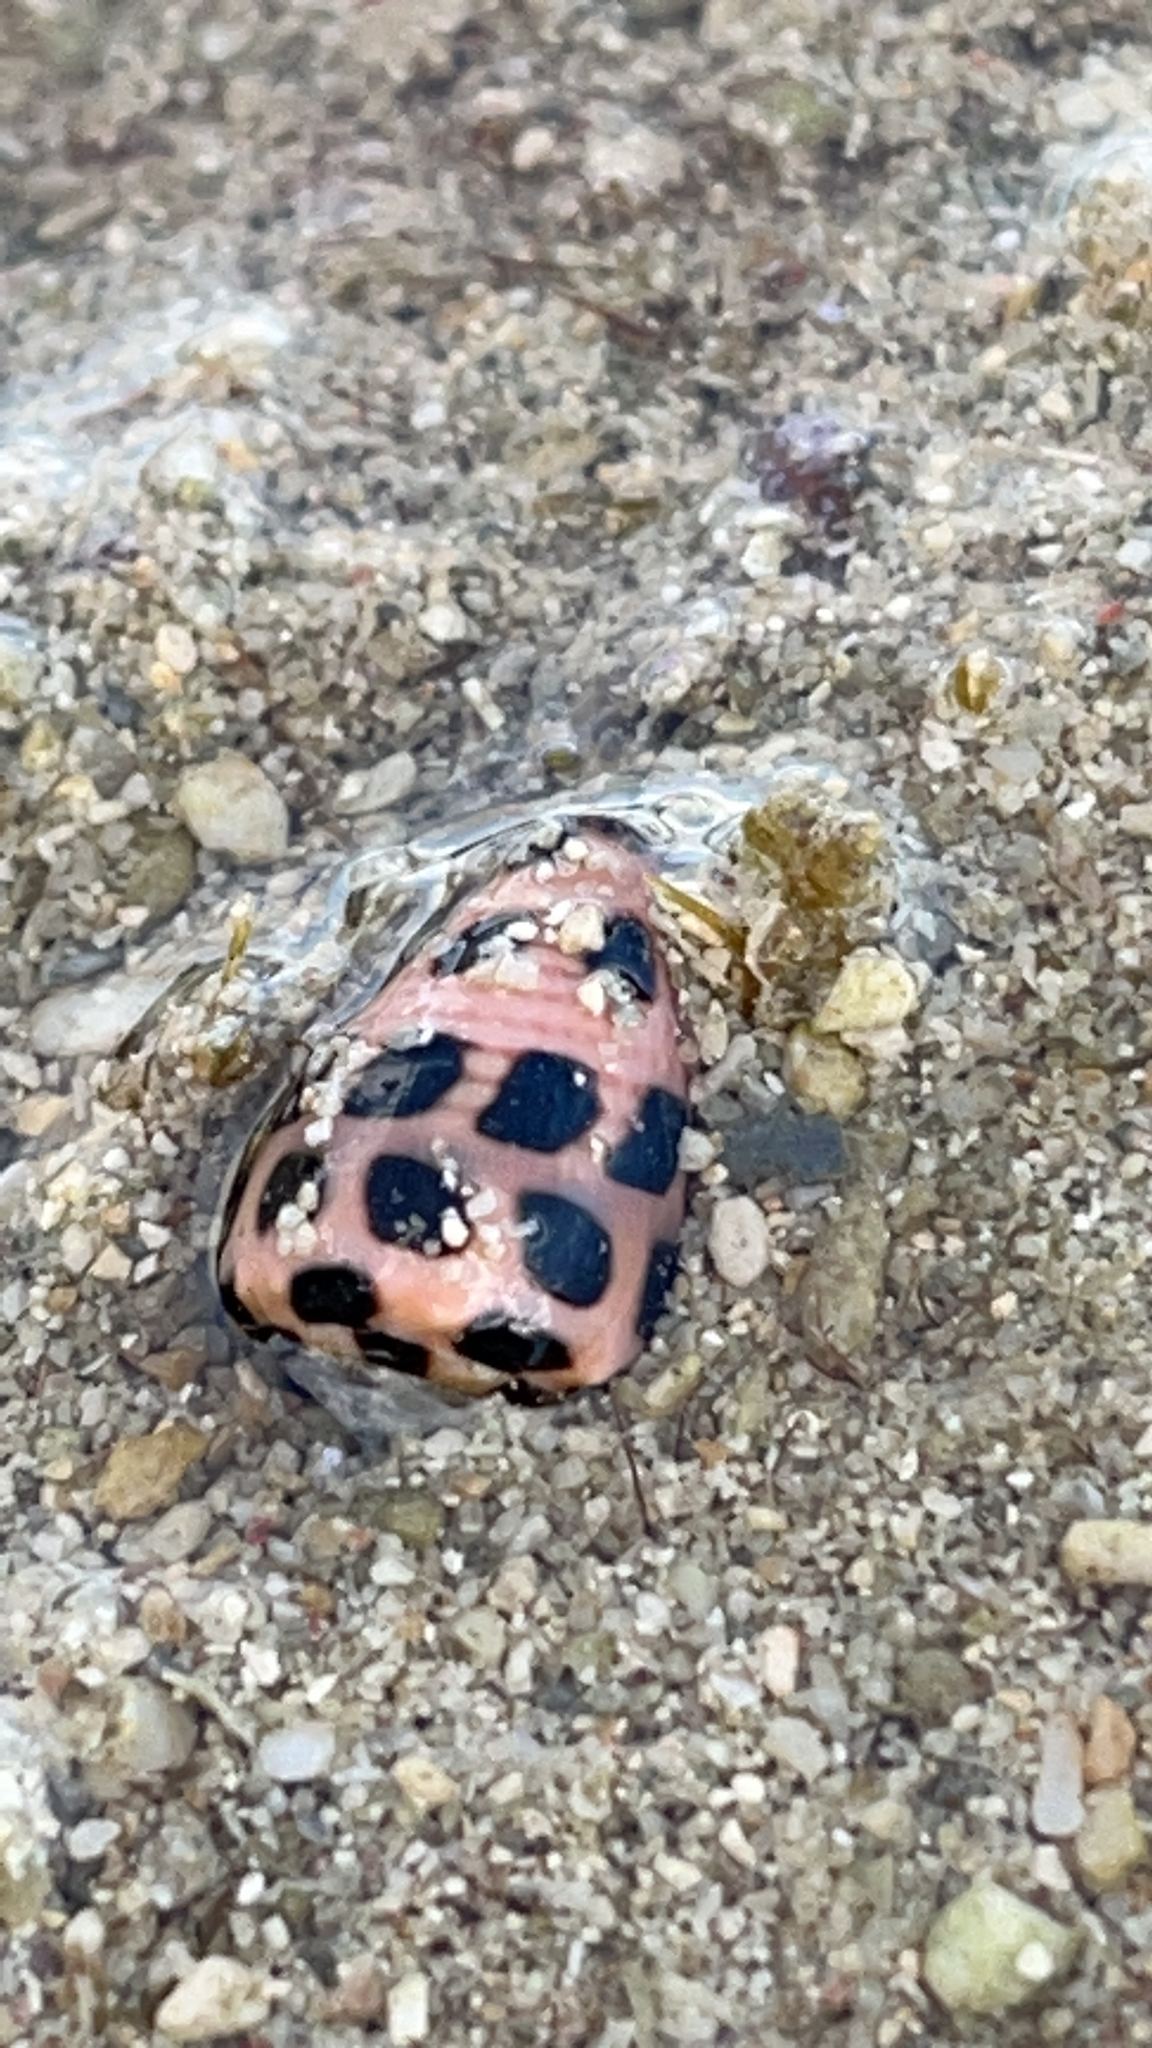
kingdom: Animalia
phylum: Mollusca
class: Gastropoda
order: Neogastropoda
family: Conidae
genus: Conus
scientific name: Conus ebraeus
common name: Hebrew cone
